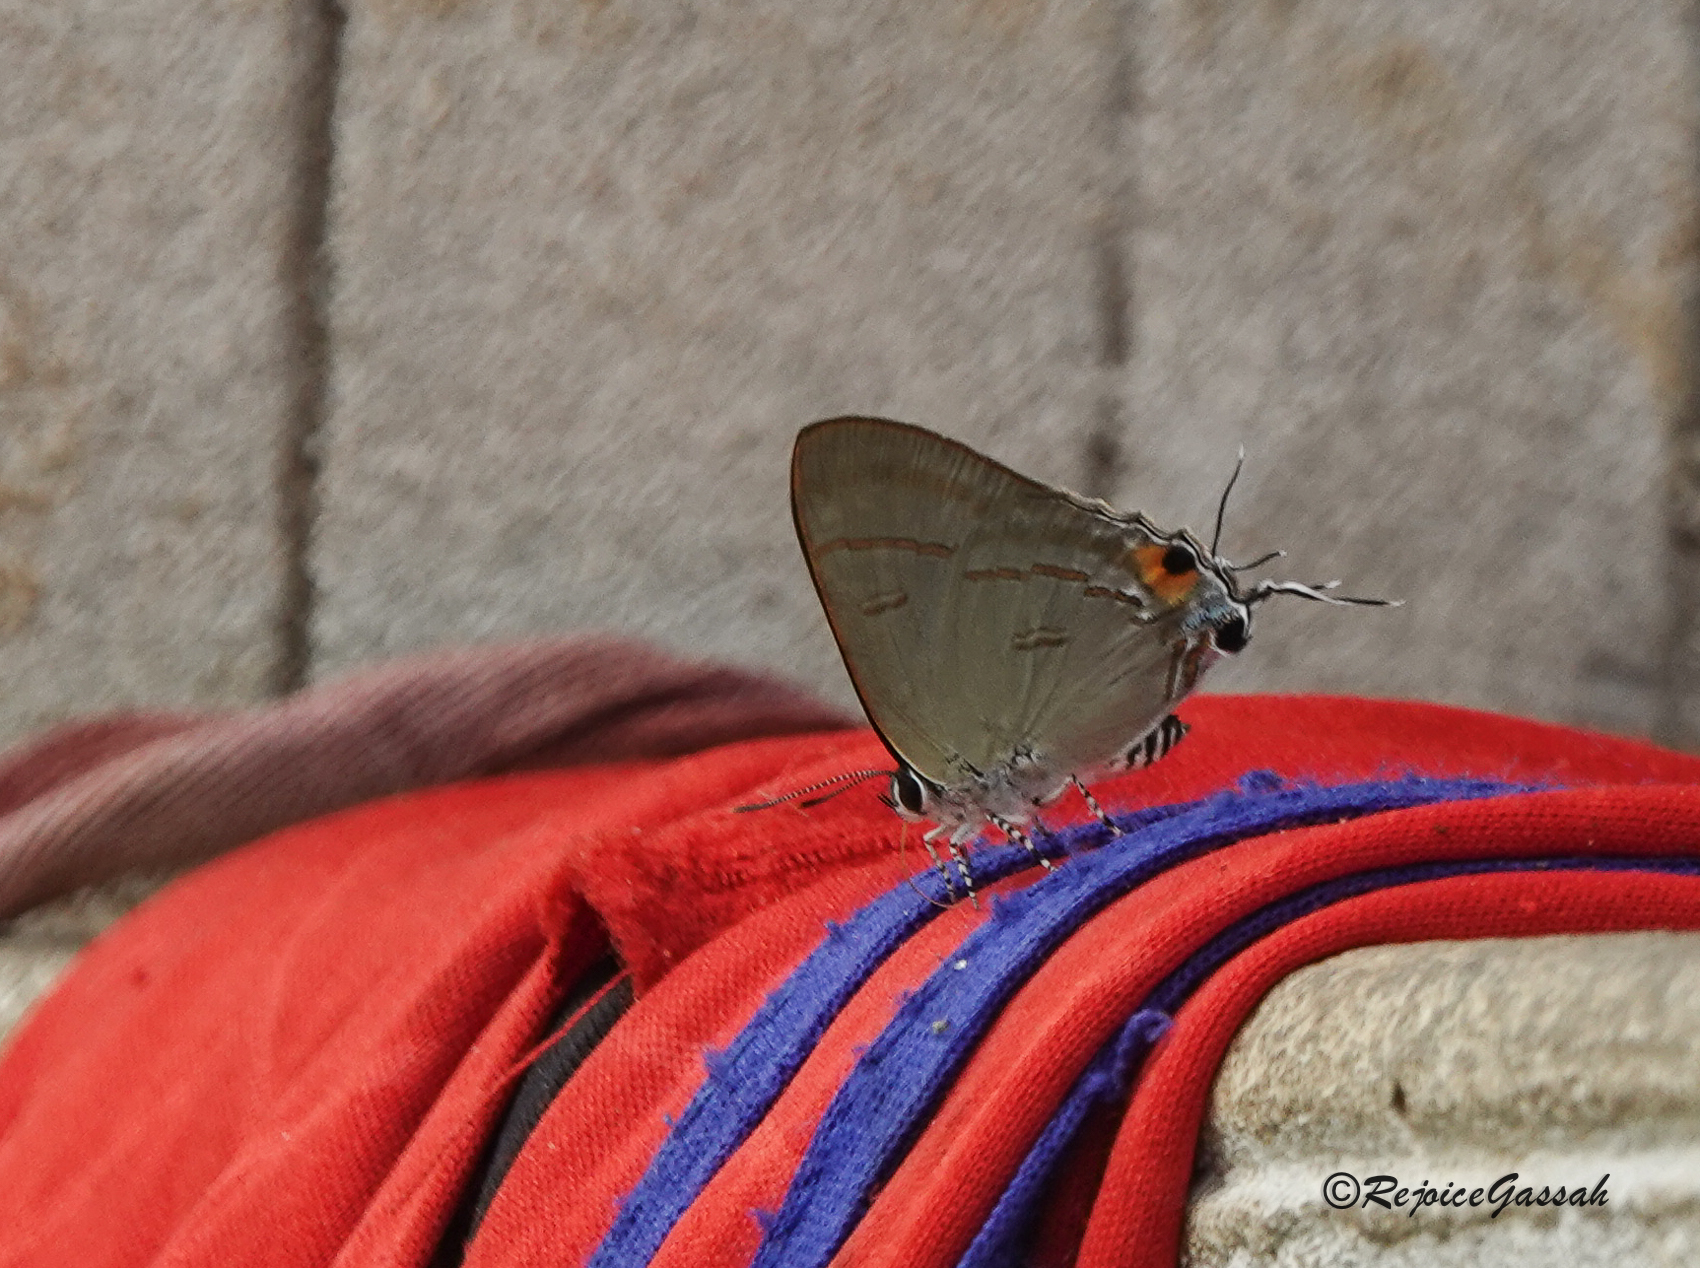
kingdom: Animalia
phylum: Arthropoda
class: Insecta
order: Lepidoptera
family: Lycaenidae
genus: Hypolycaena
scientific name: Hypolycaena erylus
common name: Common tit
